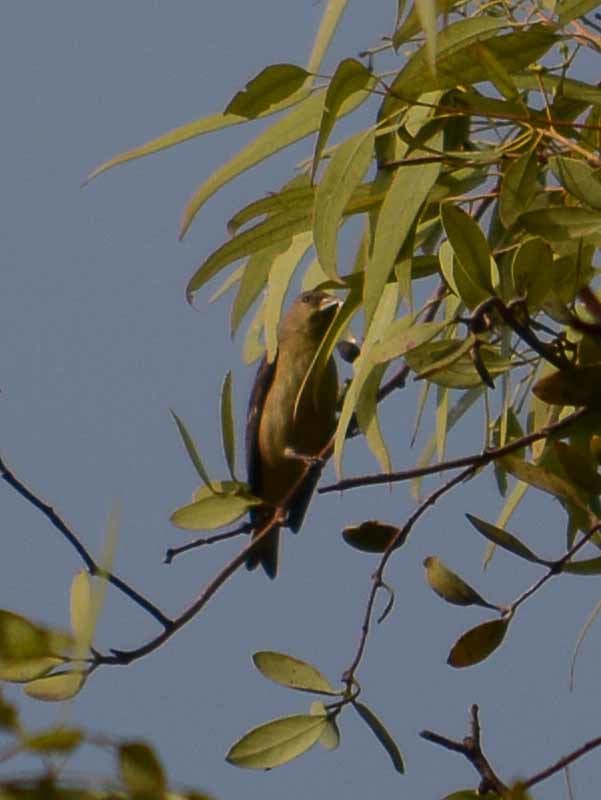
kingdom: Animalia
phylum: Chordata
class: Aves
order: Passeriformes
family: Fringillidae
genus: Spinus
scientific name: Spinus psaltria
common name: Lesser goldfinch
